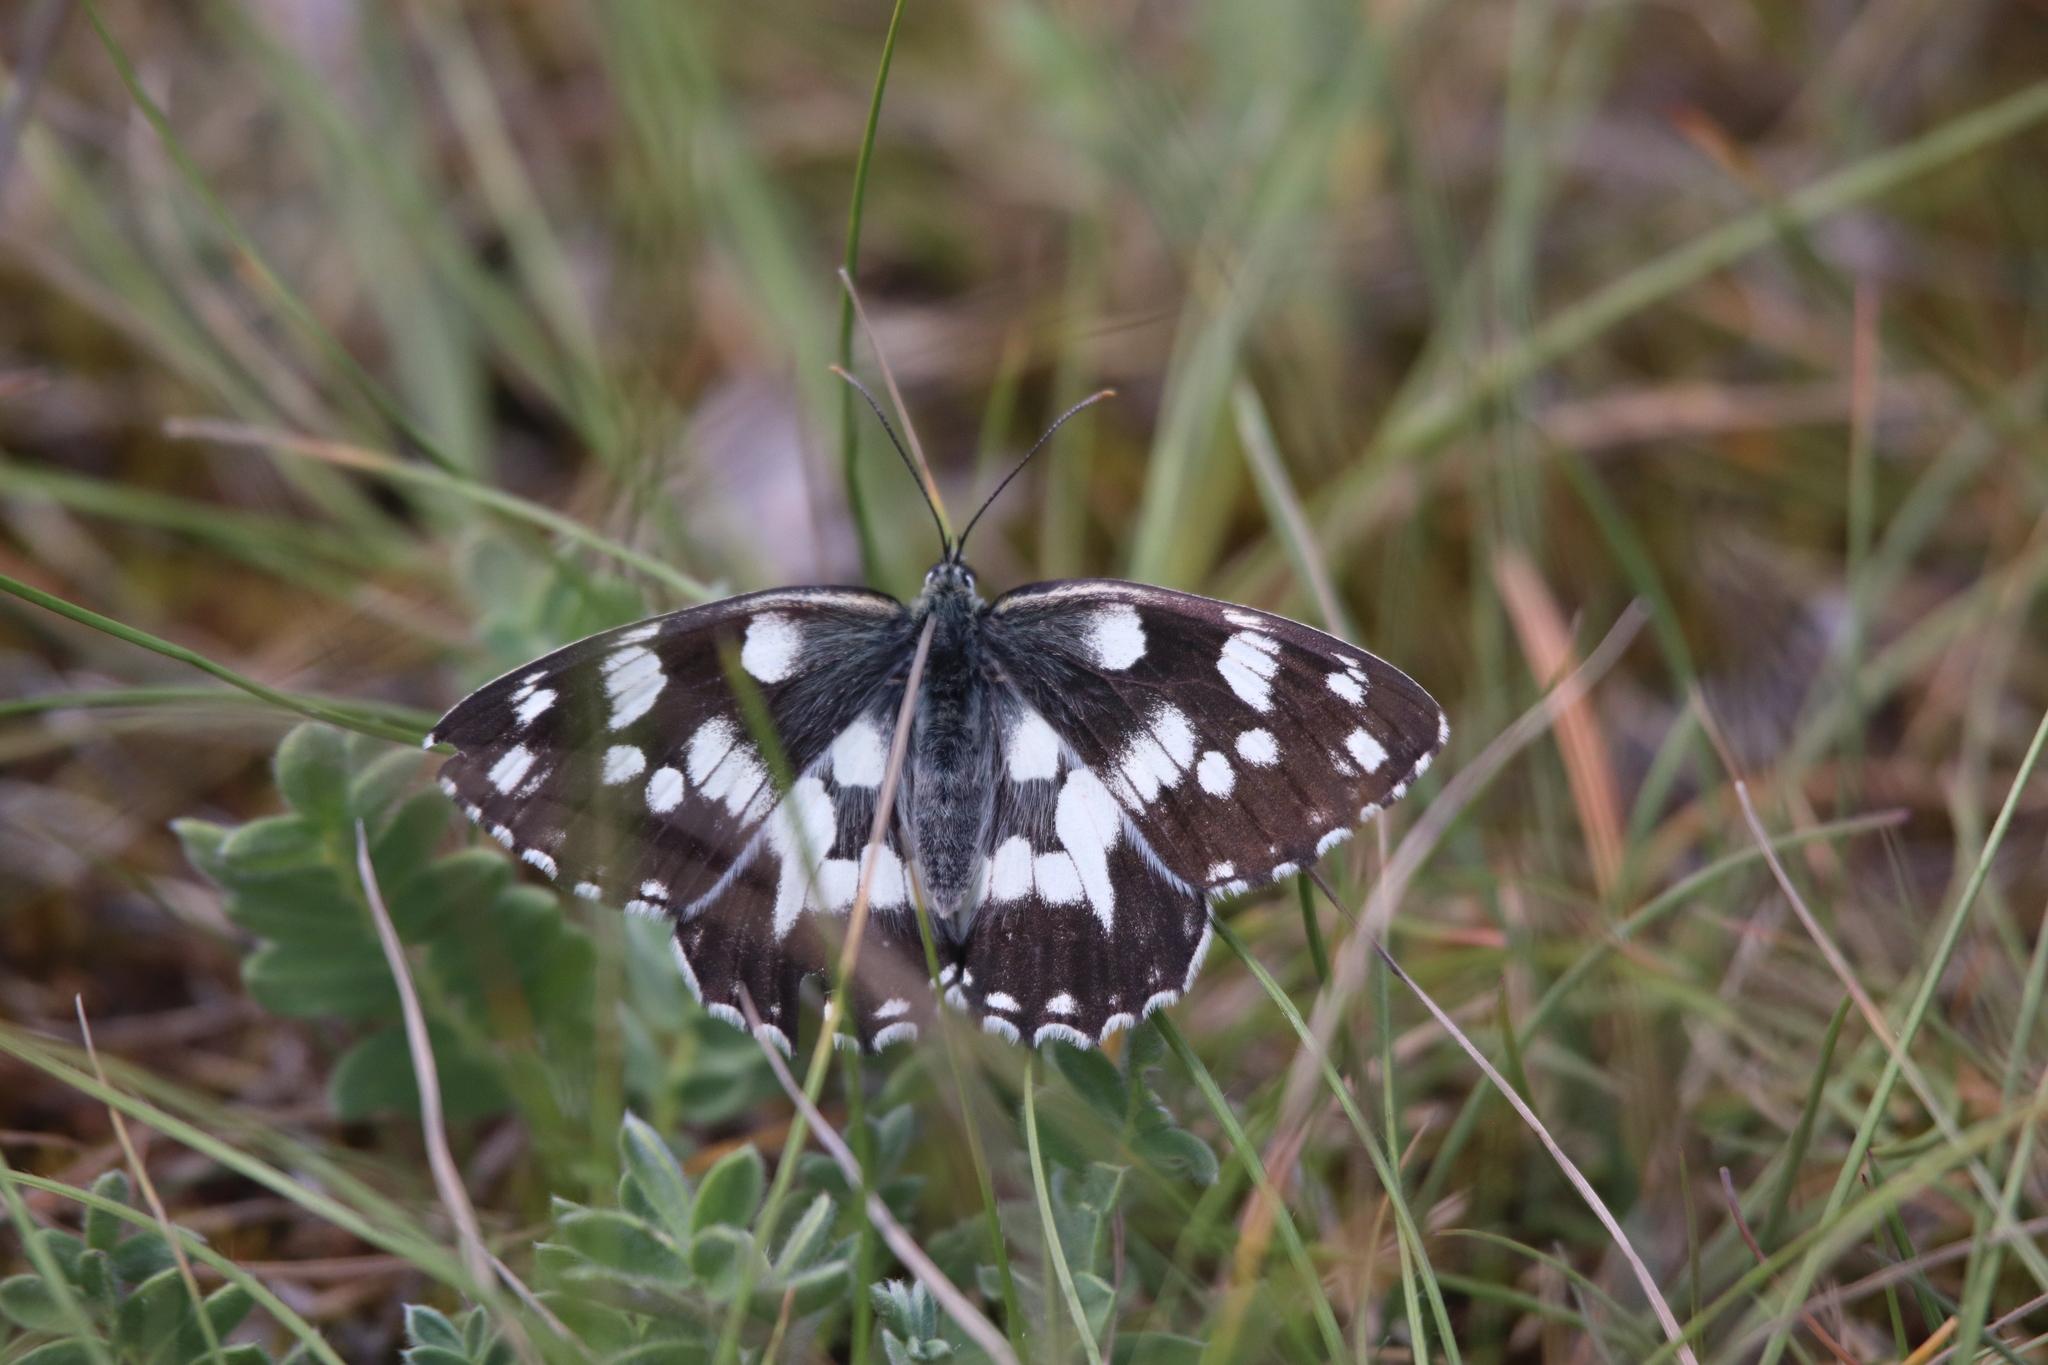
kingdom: Animalia
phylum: Arthropoda
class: Insecta
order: Lepidoptera
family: Nymphalidae
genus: Melanargia
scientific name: Melanargia galathea
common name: Marbled white
